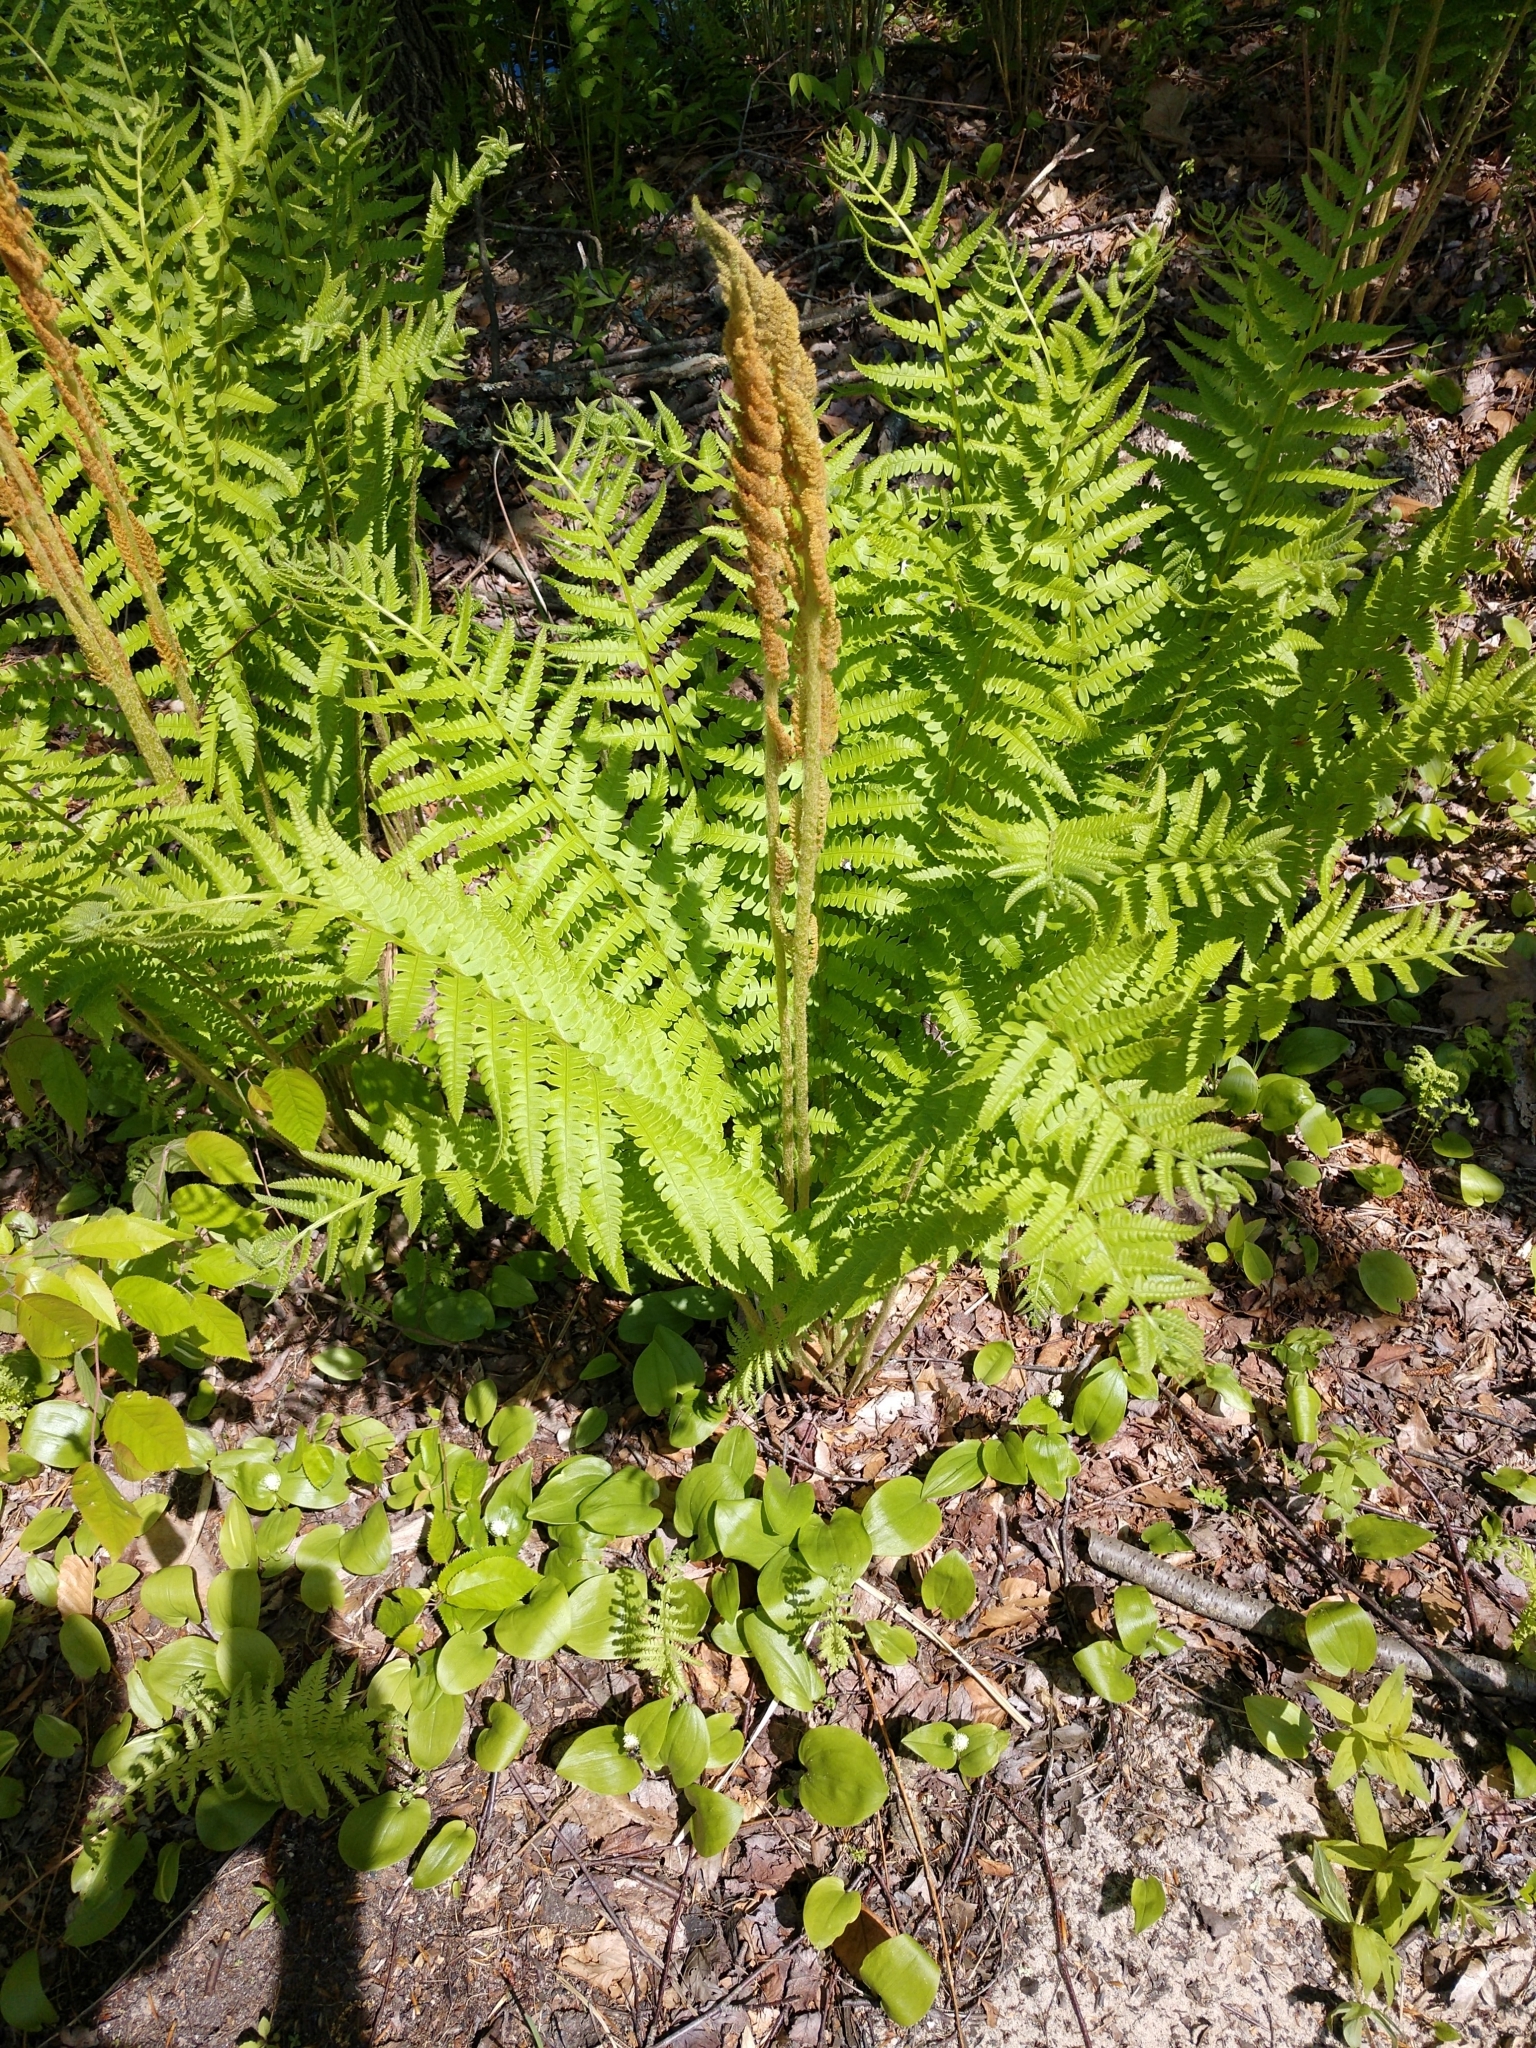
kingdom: Plantae
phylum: Tracheophyta
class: Polypodiopsida
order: Osmundales
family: Osmundaceae
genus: Osmundastrum
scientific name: Osmundastrum cinnamomeum
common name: Cinnamon fern
